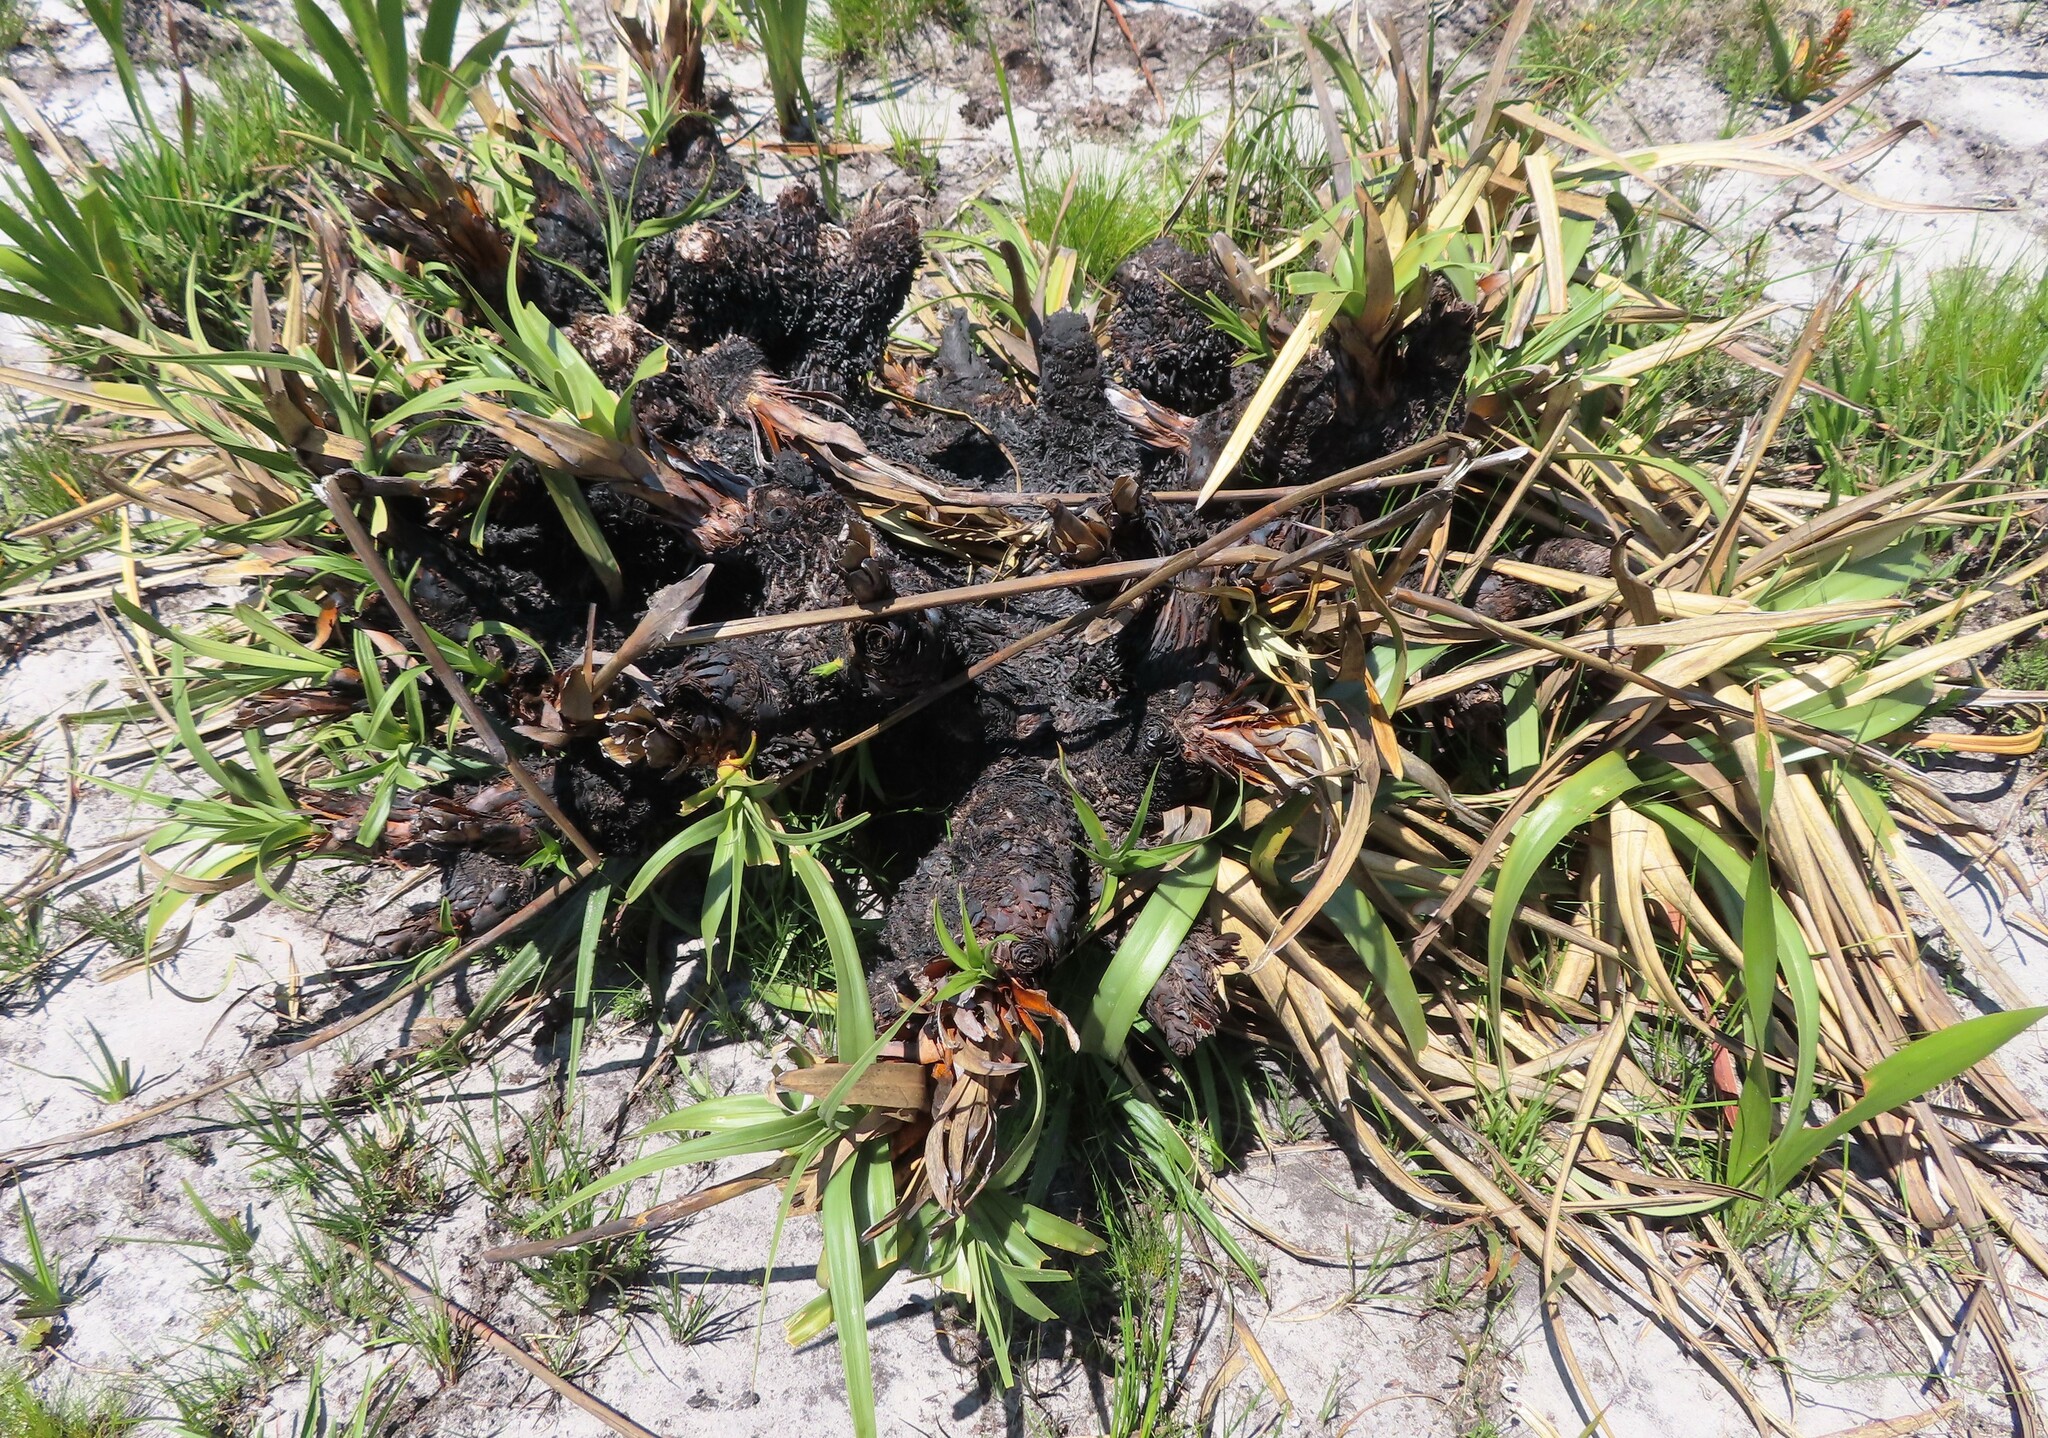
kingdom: Plantae
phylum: Tracheophyta
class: Liliopsida
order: Poales
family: Cyperaceae
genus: Tetraria
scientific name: Tetraria thermalis
